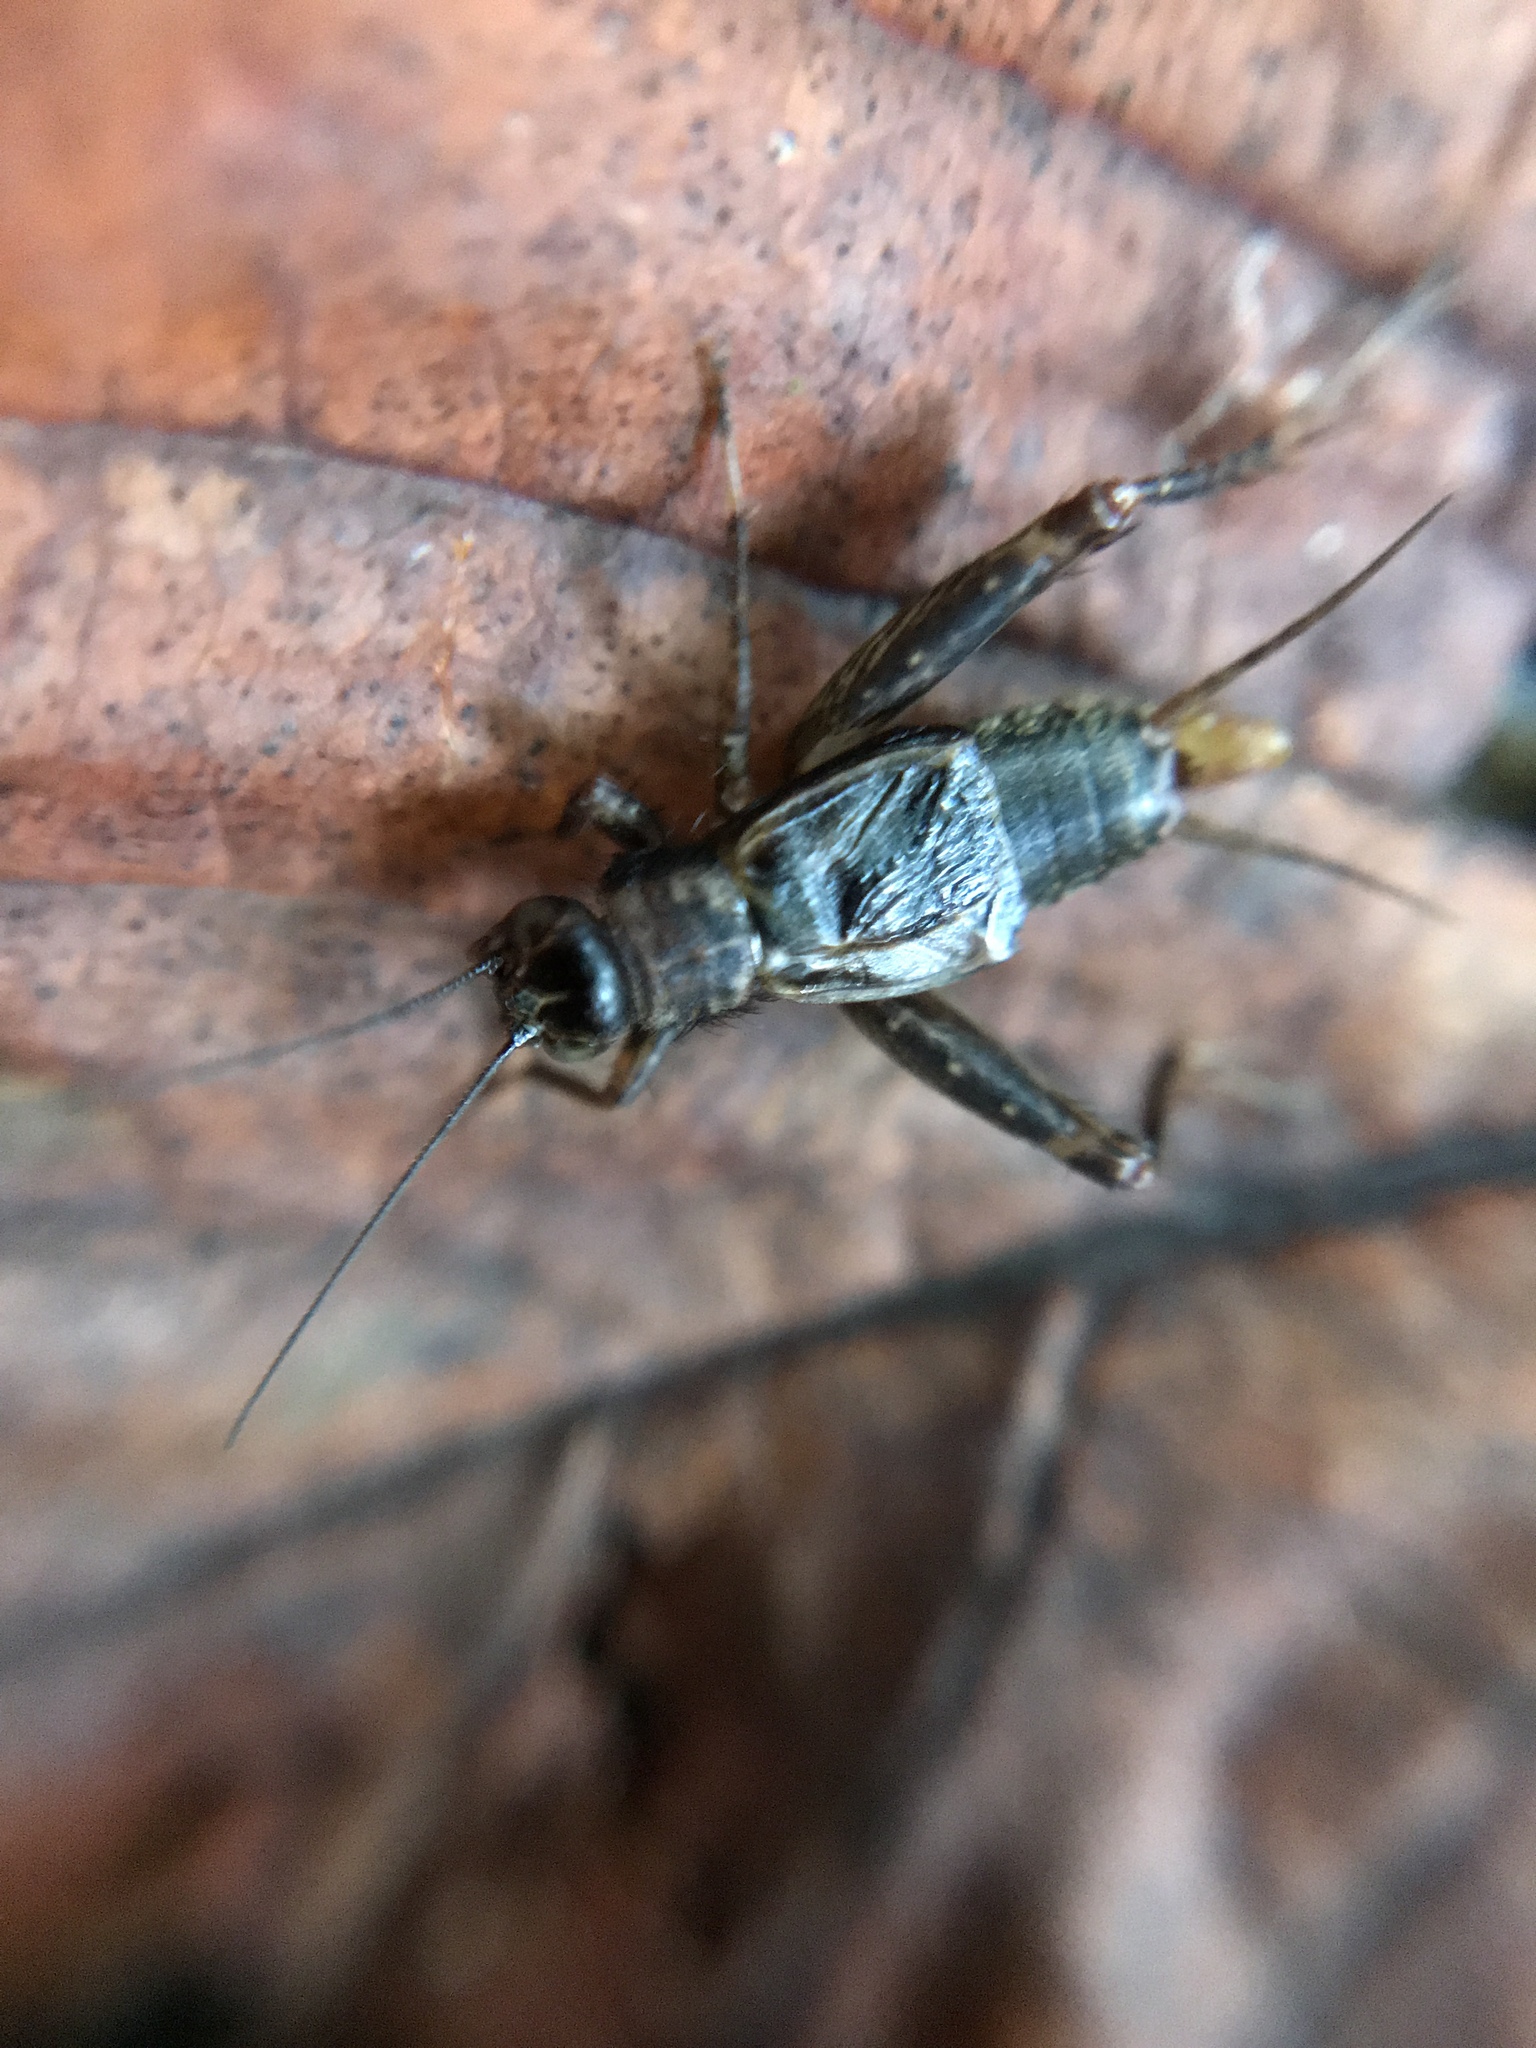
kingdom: Animalia
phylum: Arthropoda
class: Insecta
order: Orthoptera
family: Trigonidiidae
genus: Nemobius
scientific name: Nemobius sylvestris
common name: Wood-cricket
